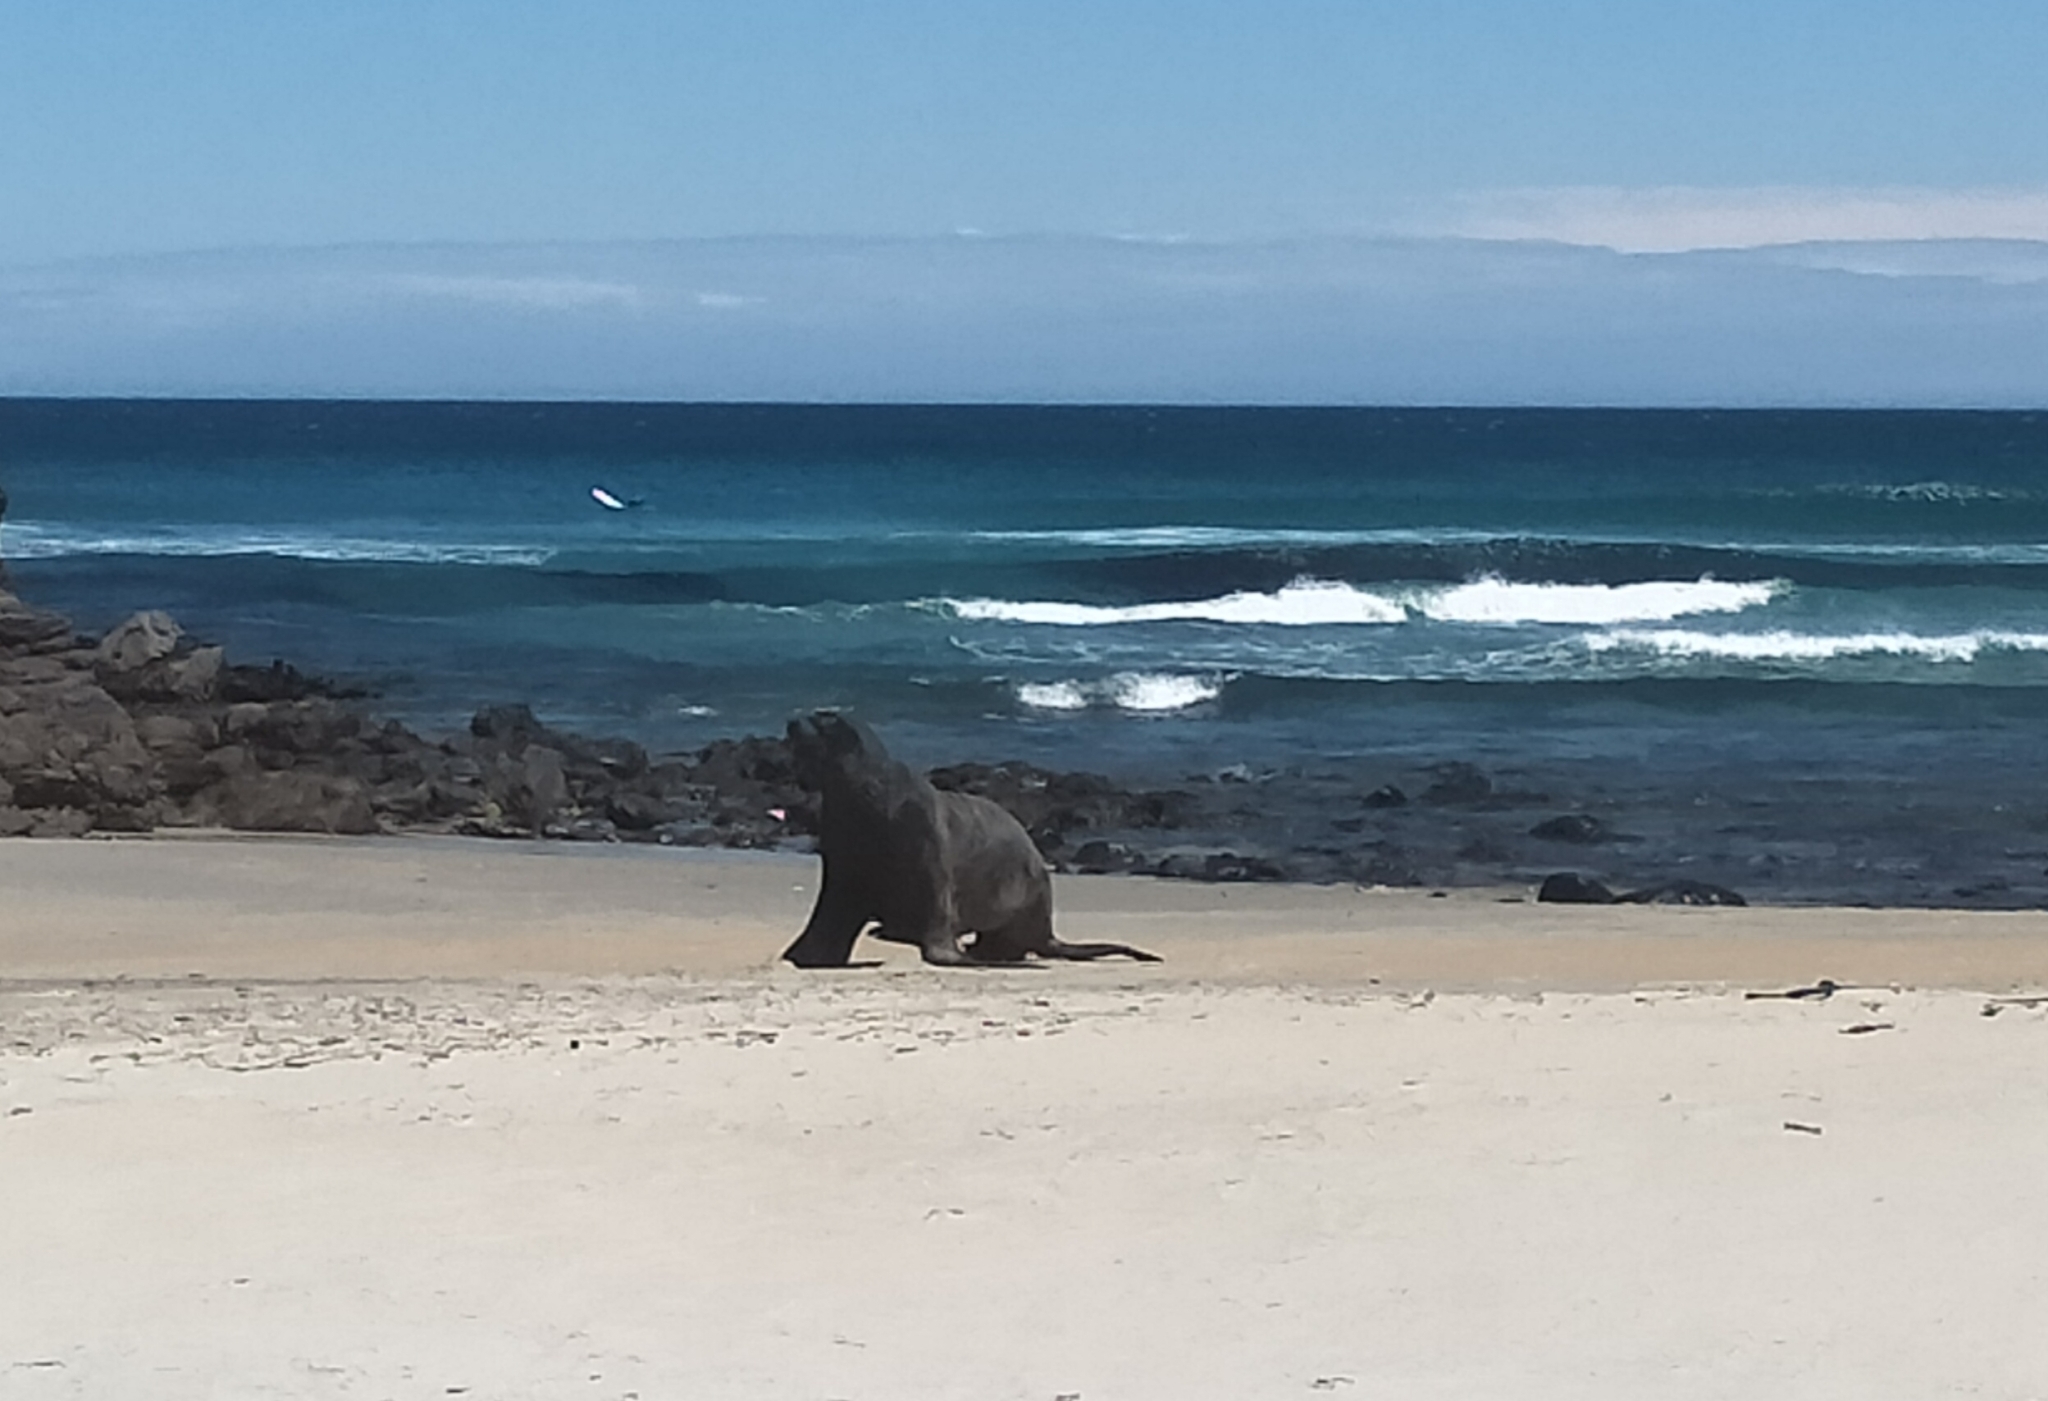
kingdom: Animalia
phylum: Chordata
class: Mammalia
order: Carnivora
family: Otariidae
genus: Phocarctos
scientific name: Phocarctos hookeri
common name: New zealand sea lion
